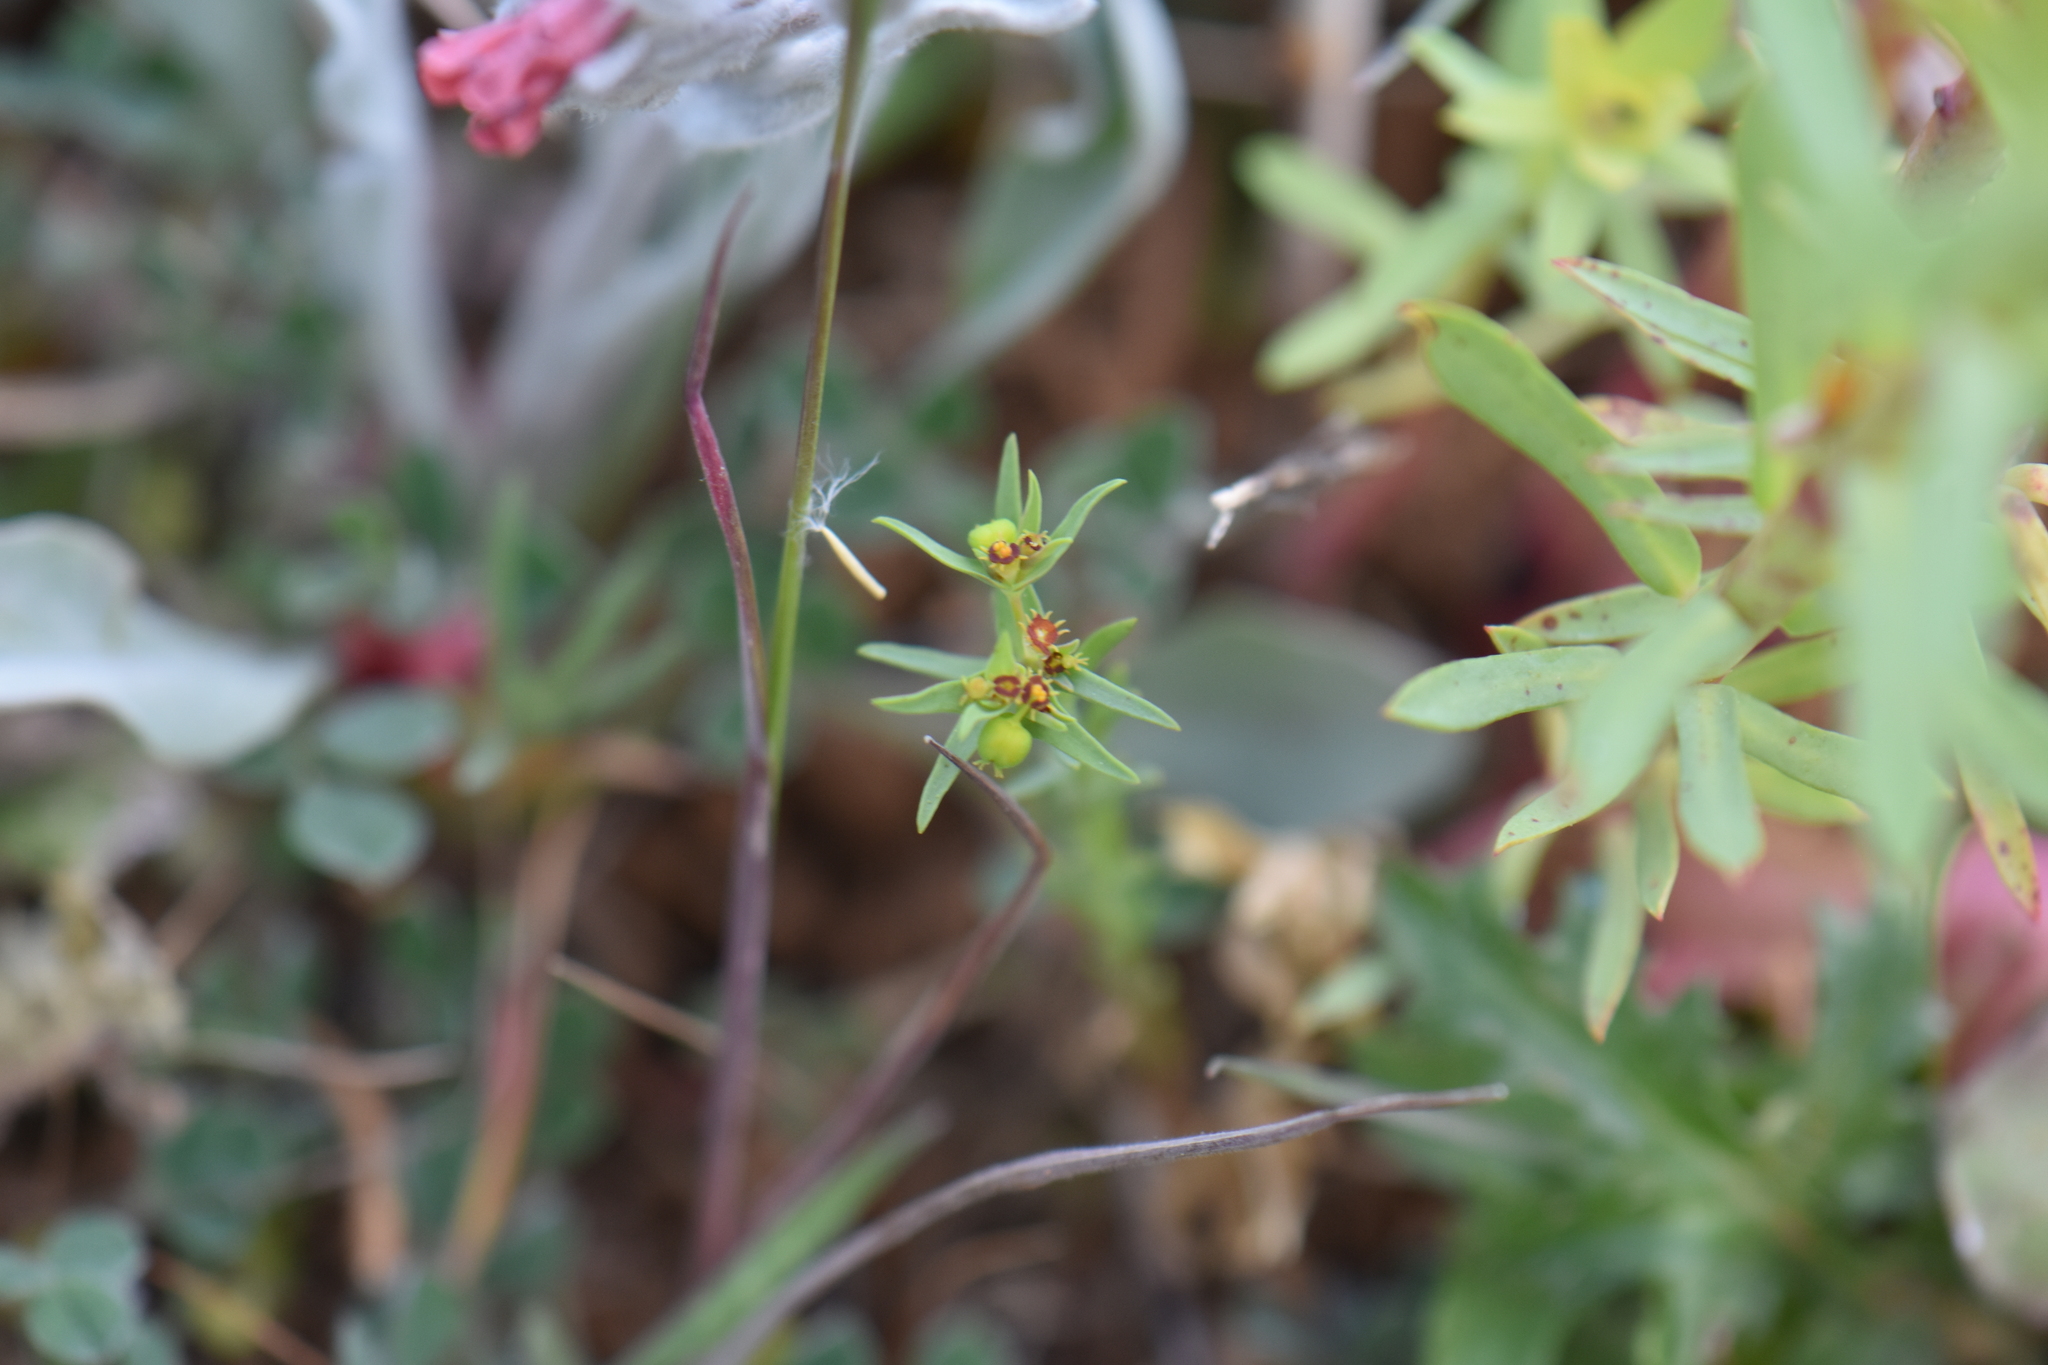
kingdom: Plantae
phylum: Tracheophyta
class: Magnoliopsida
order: Malpighiales
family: Euphorbiaceae
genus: Euphorbia
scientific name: Euphorbia exigua
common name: Dwarf spurge
